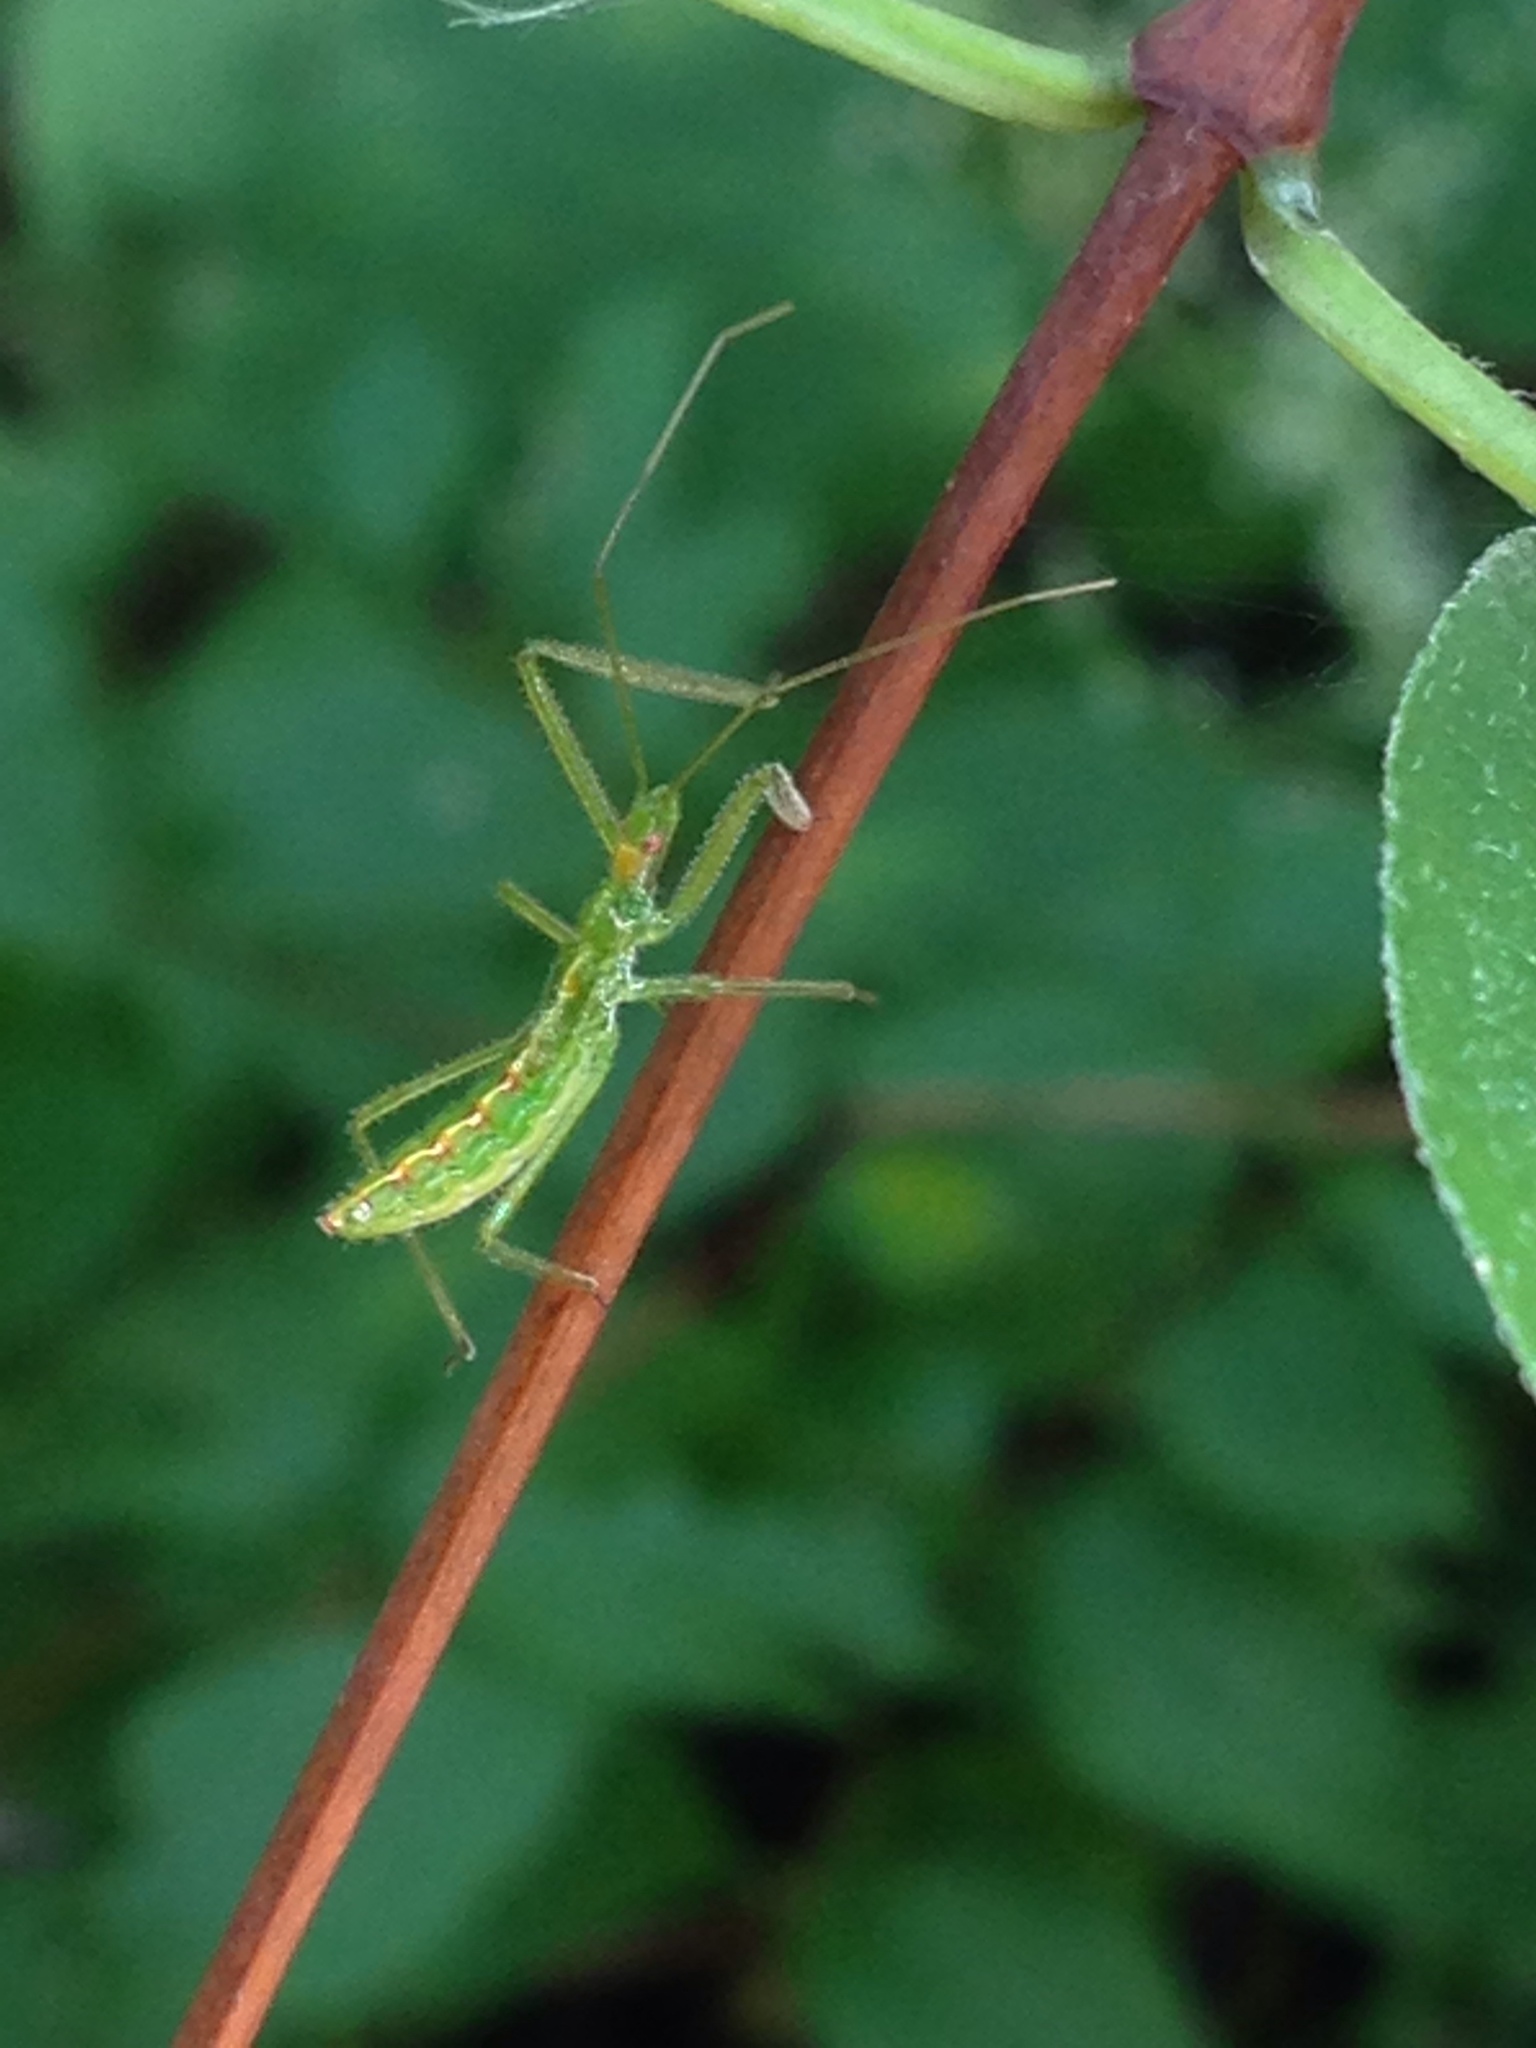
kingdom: Animalia
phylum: Arthropoda
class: Insecta
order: Hemiptera
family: Reduviidae
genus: Zelus
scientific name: Zelus luridus
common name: Pale green assassin bug
